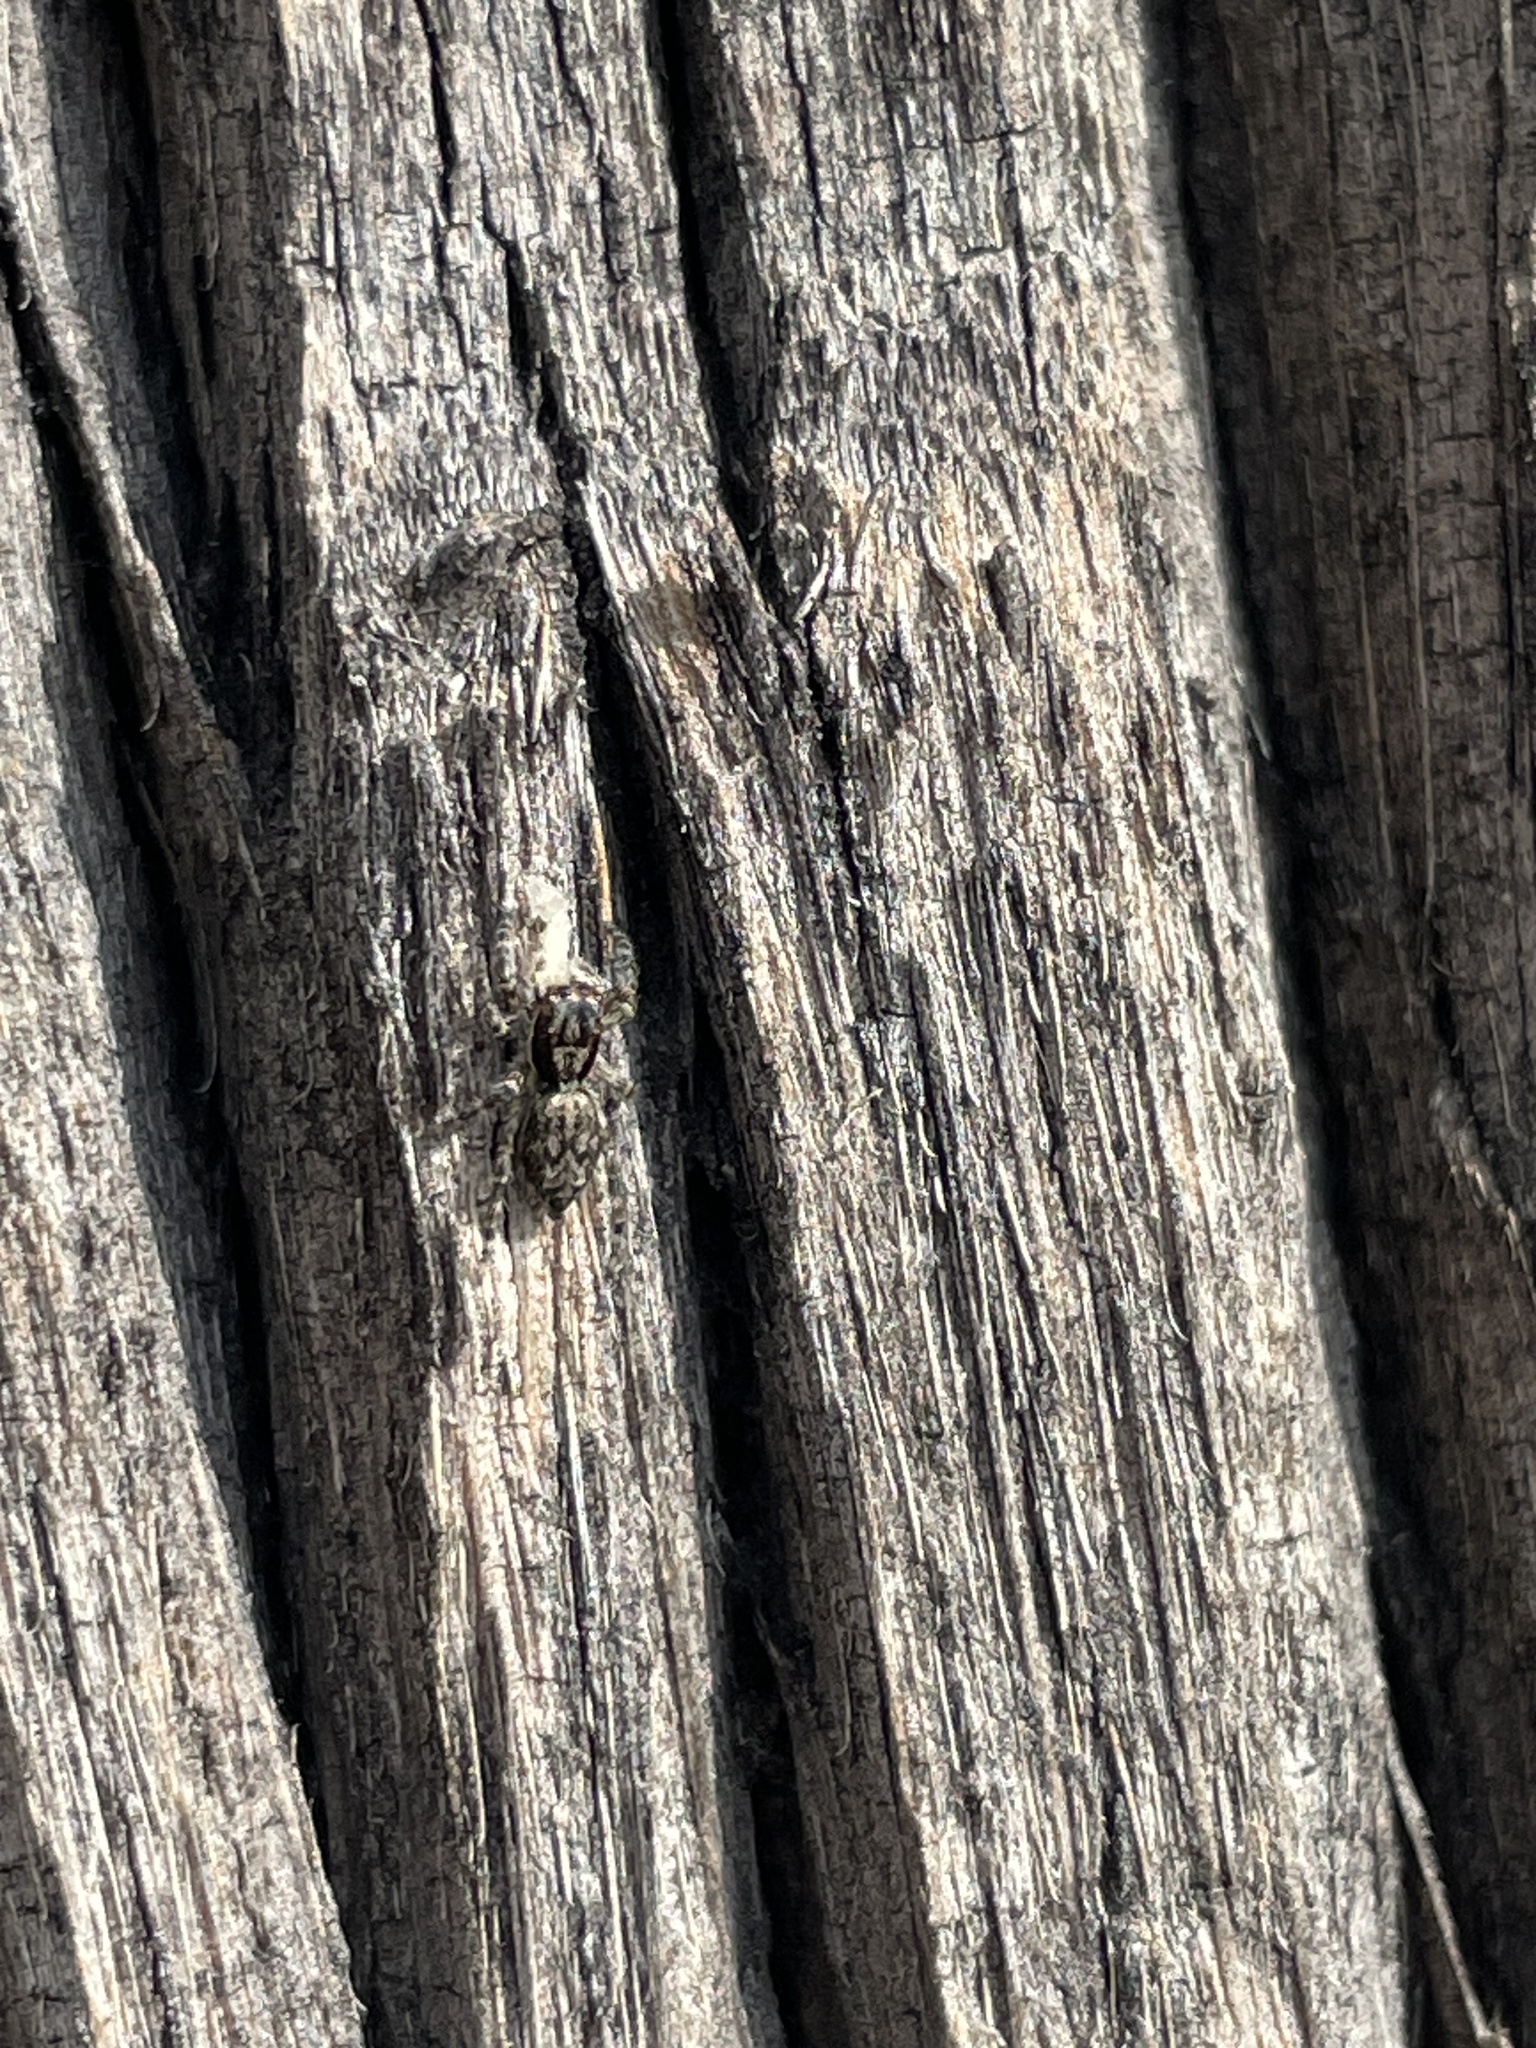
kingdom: Animalia
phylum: Arthropoda
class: Arachnida
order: Araneae
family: Salticidae
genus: Menemerus
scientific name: Menemerus bivittatus
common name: Gray wall jumper
